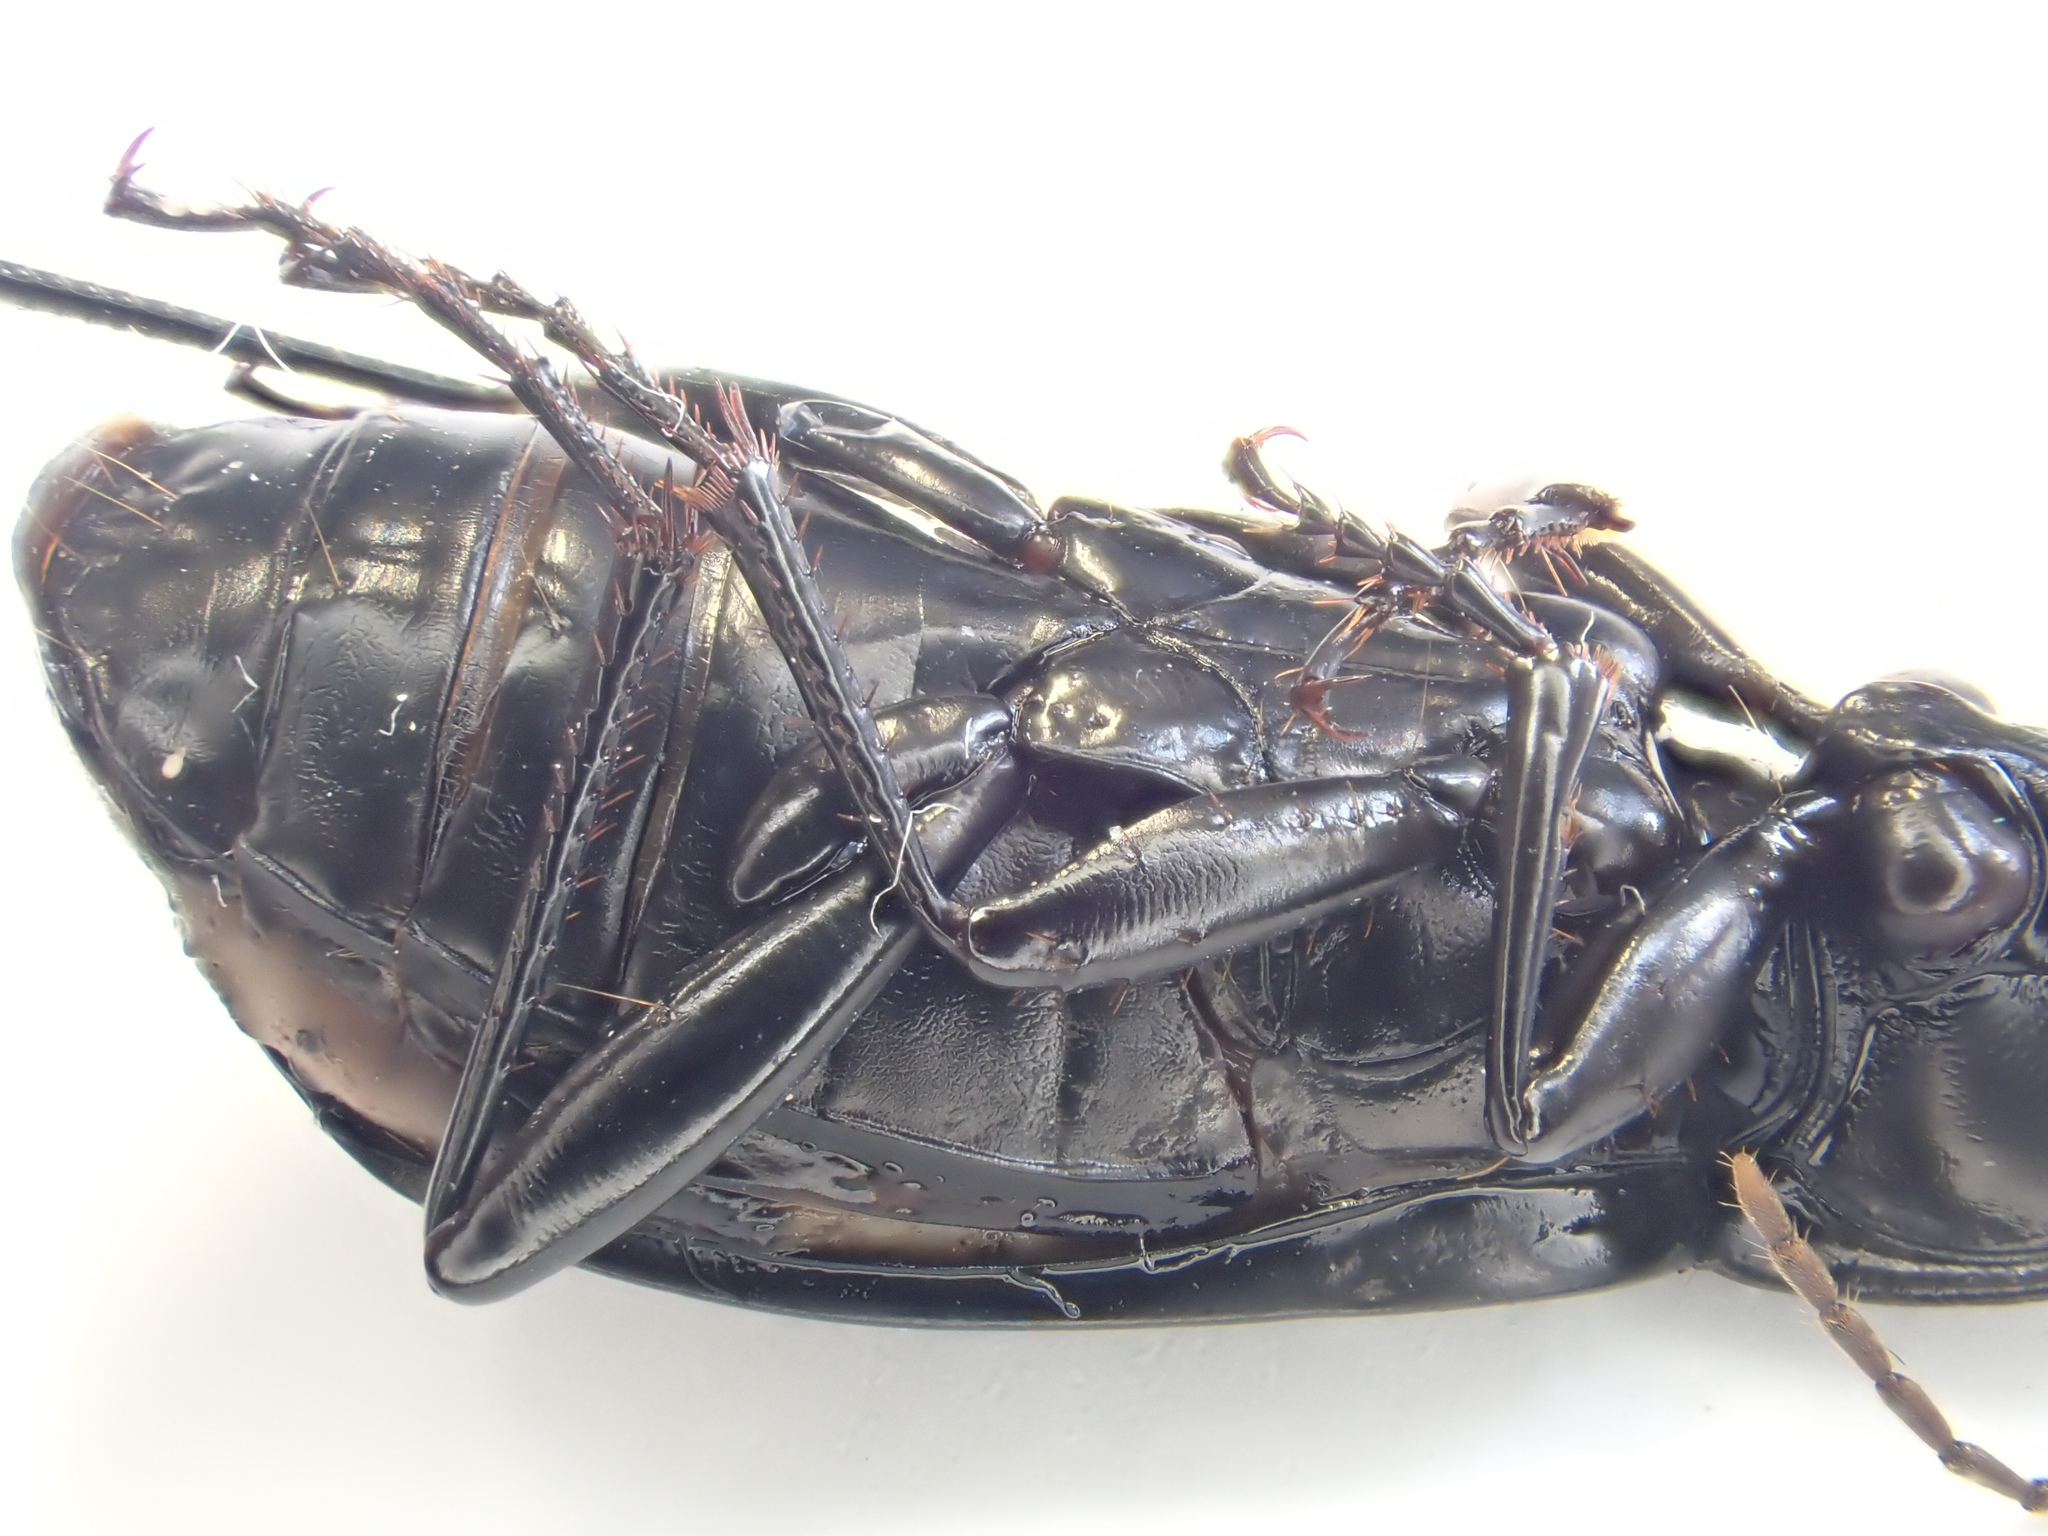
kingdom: Animalia
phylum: Arthropoda
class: Insecta
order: Coleoptera
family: Carabidae
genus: Pterostichus
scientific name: Pterostichus niger
